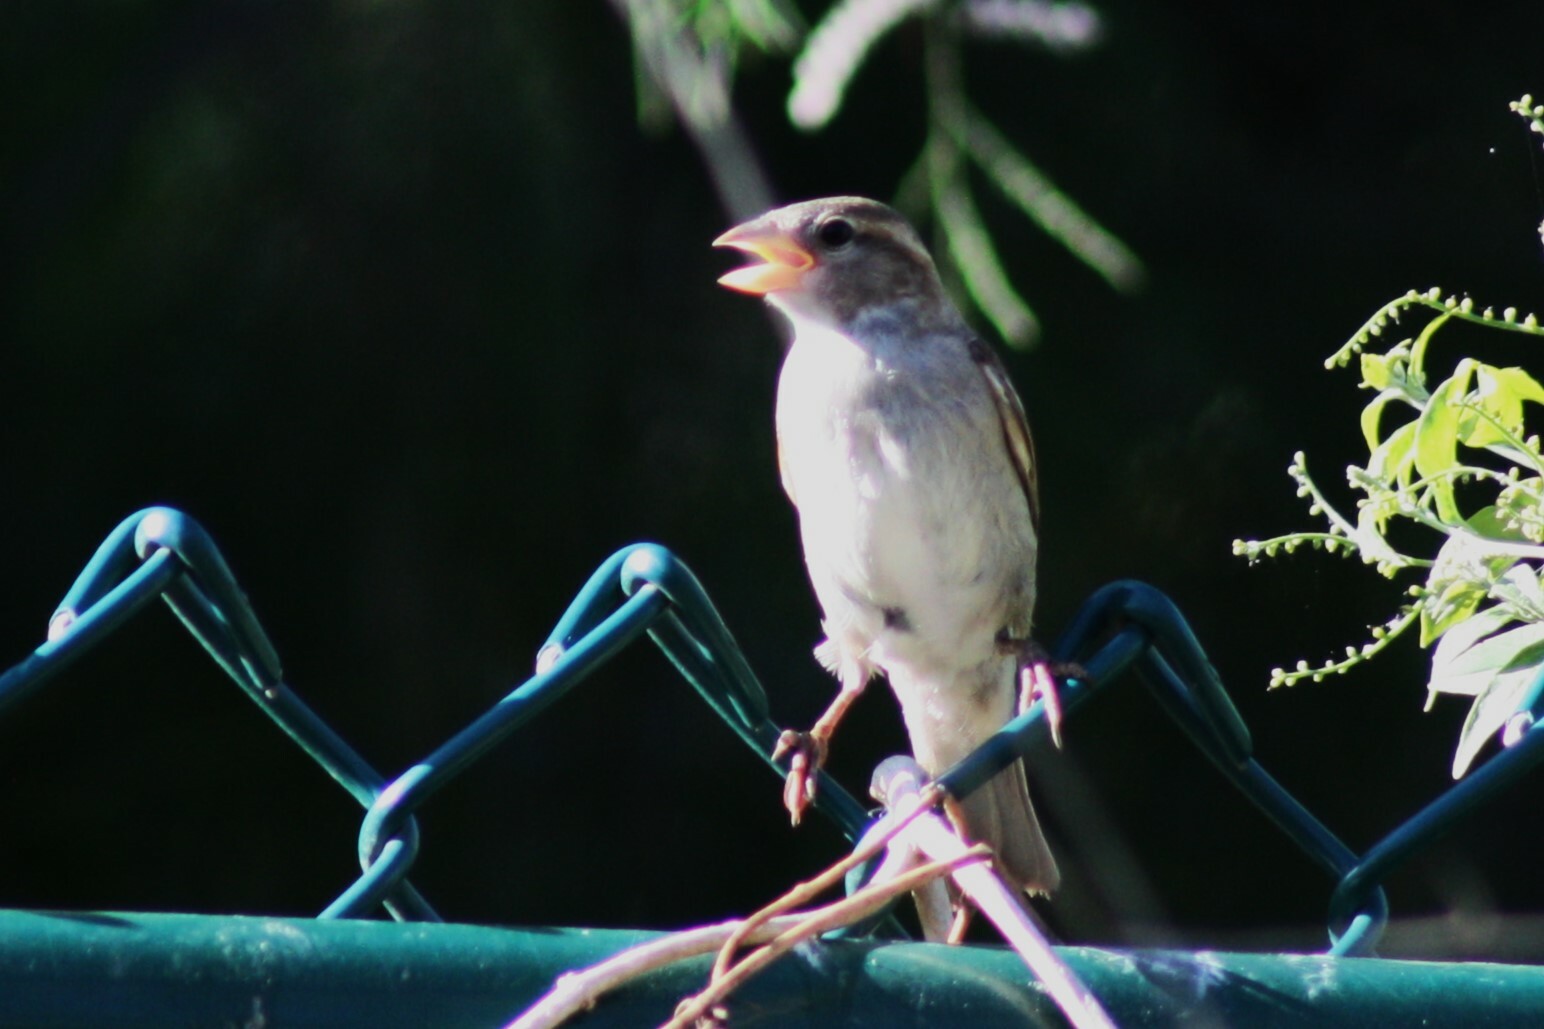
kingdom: Animalia
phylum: Chordata
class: Aves
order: Passeriformes
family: Passeridae
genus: Passer
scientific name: Passer domesticus
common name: House sparrow
